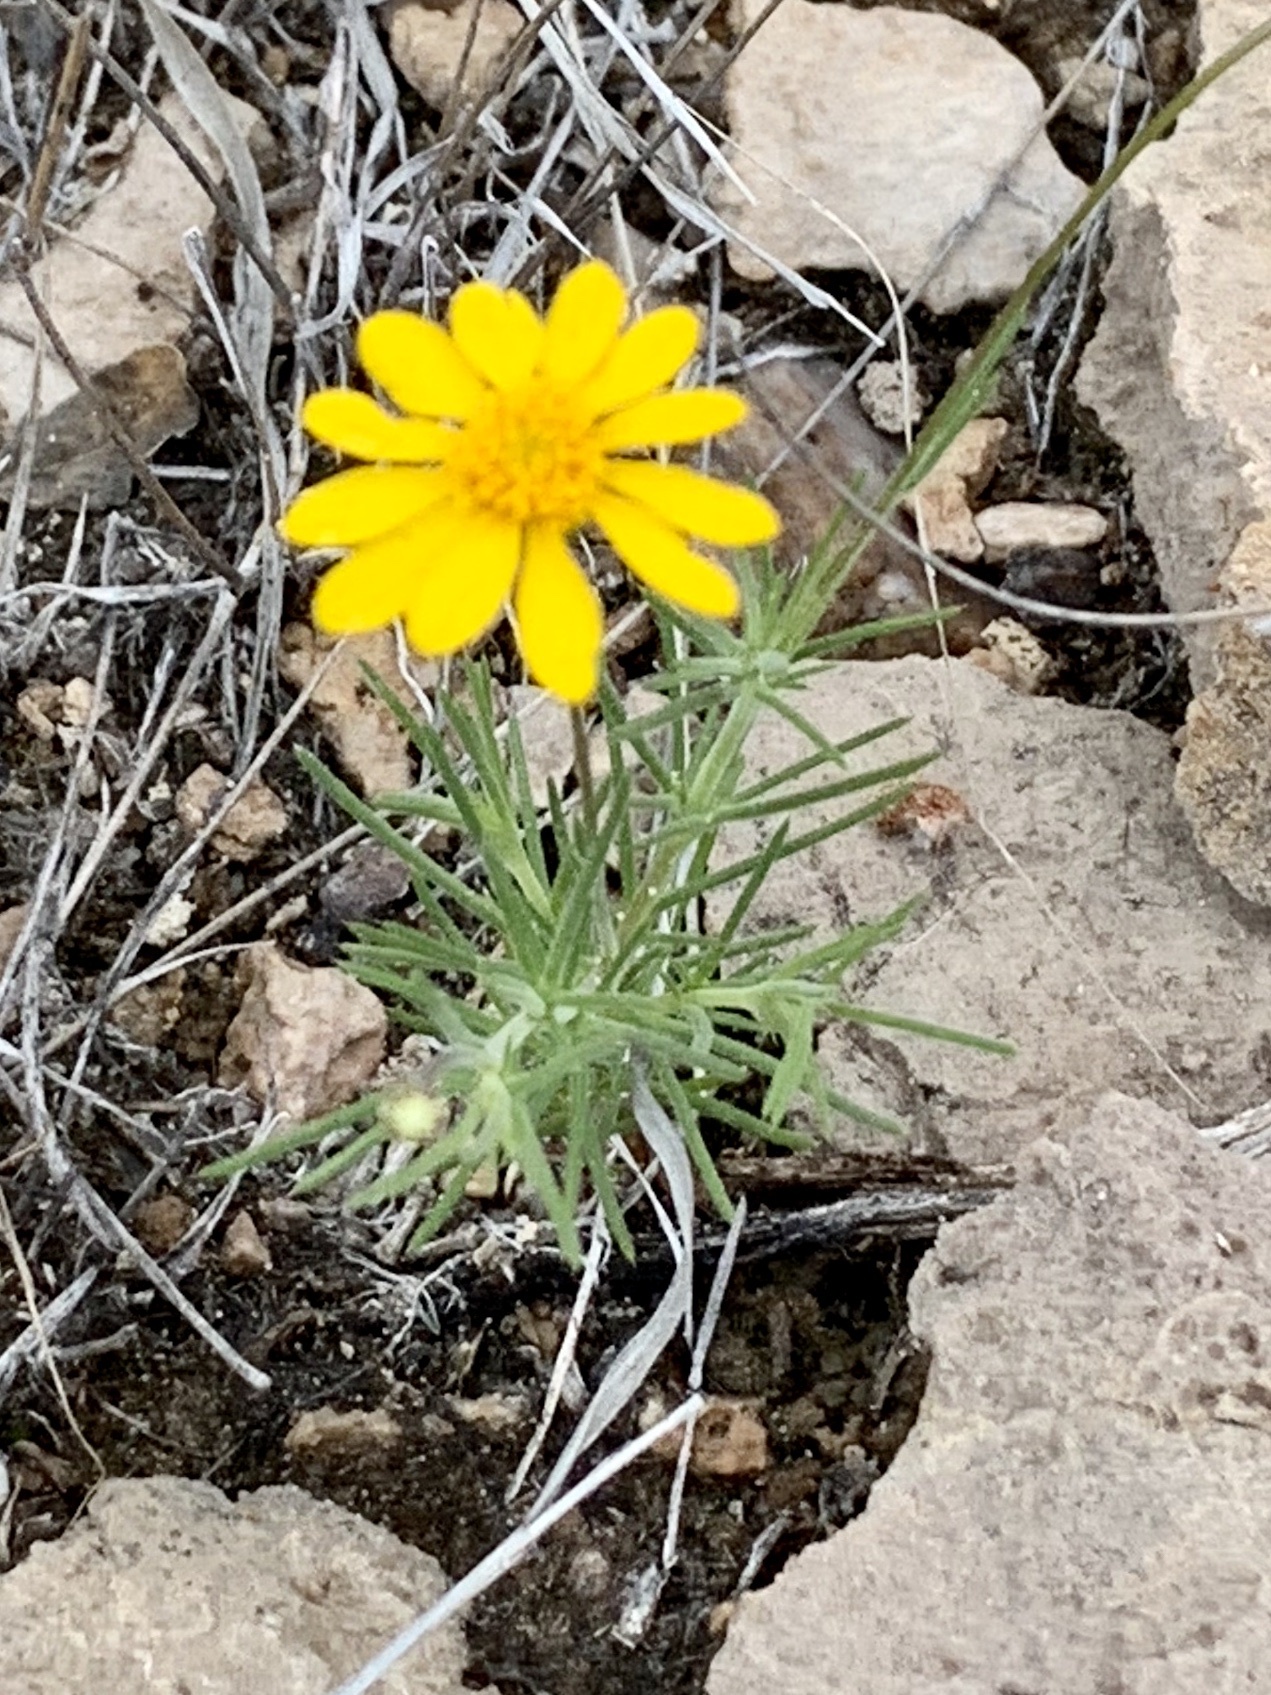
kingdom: Plantae
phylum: Tracheophyta
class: Magnoliopsida
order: Asterales
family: Asteraceae
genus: Thymophylla
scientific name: Thymophylla pentachaeta
